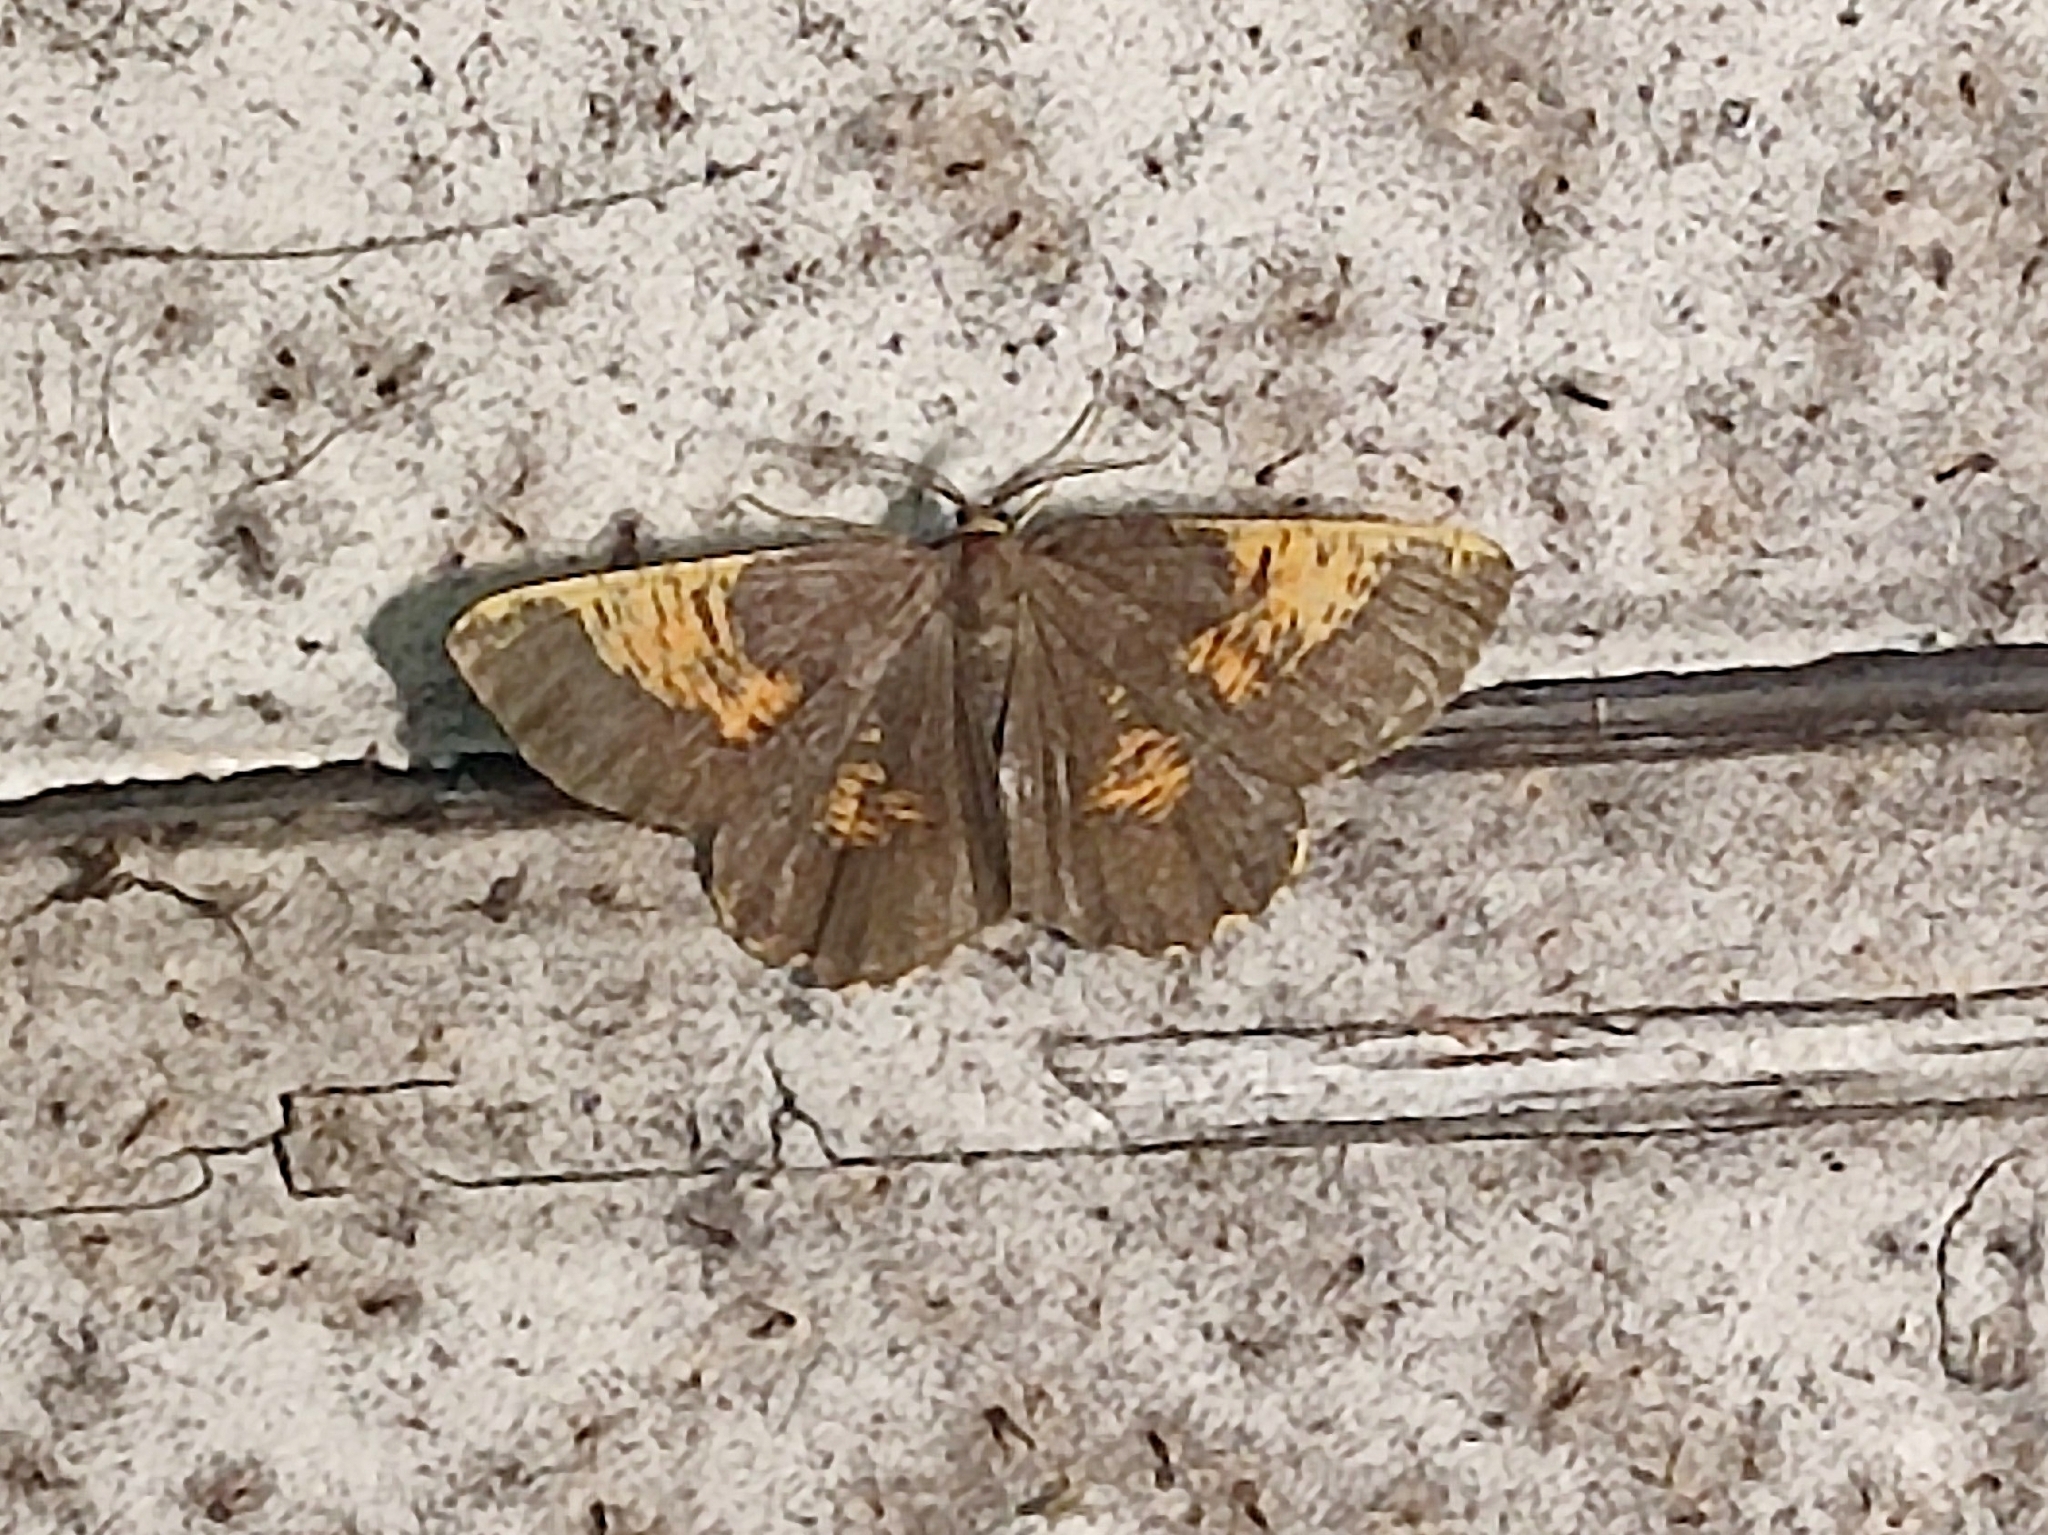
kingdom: Animalia
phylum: Arthropoda
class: Insecta
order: Lepidoptera
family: Geometridae
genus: Angerona
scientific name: Angerona prunaria
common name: Orange moth
